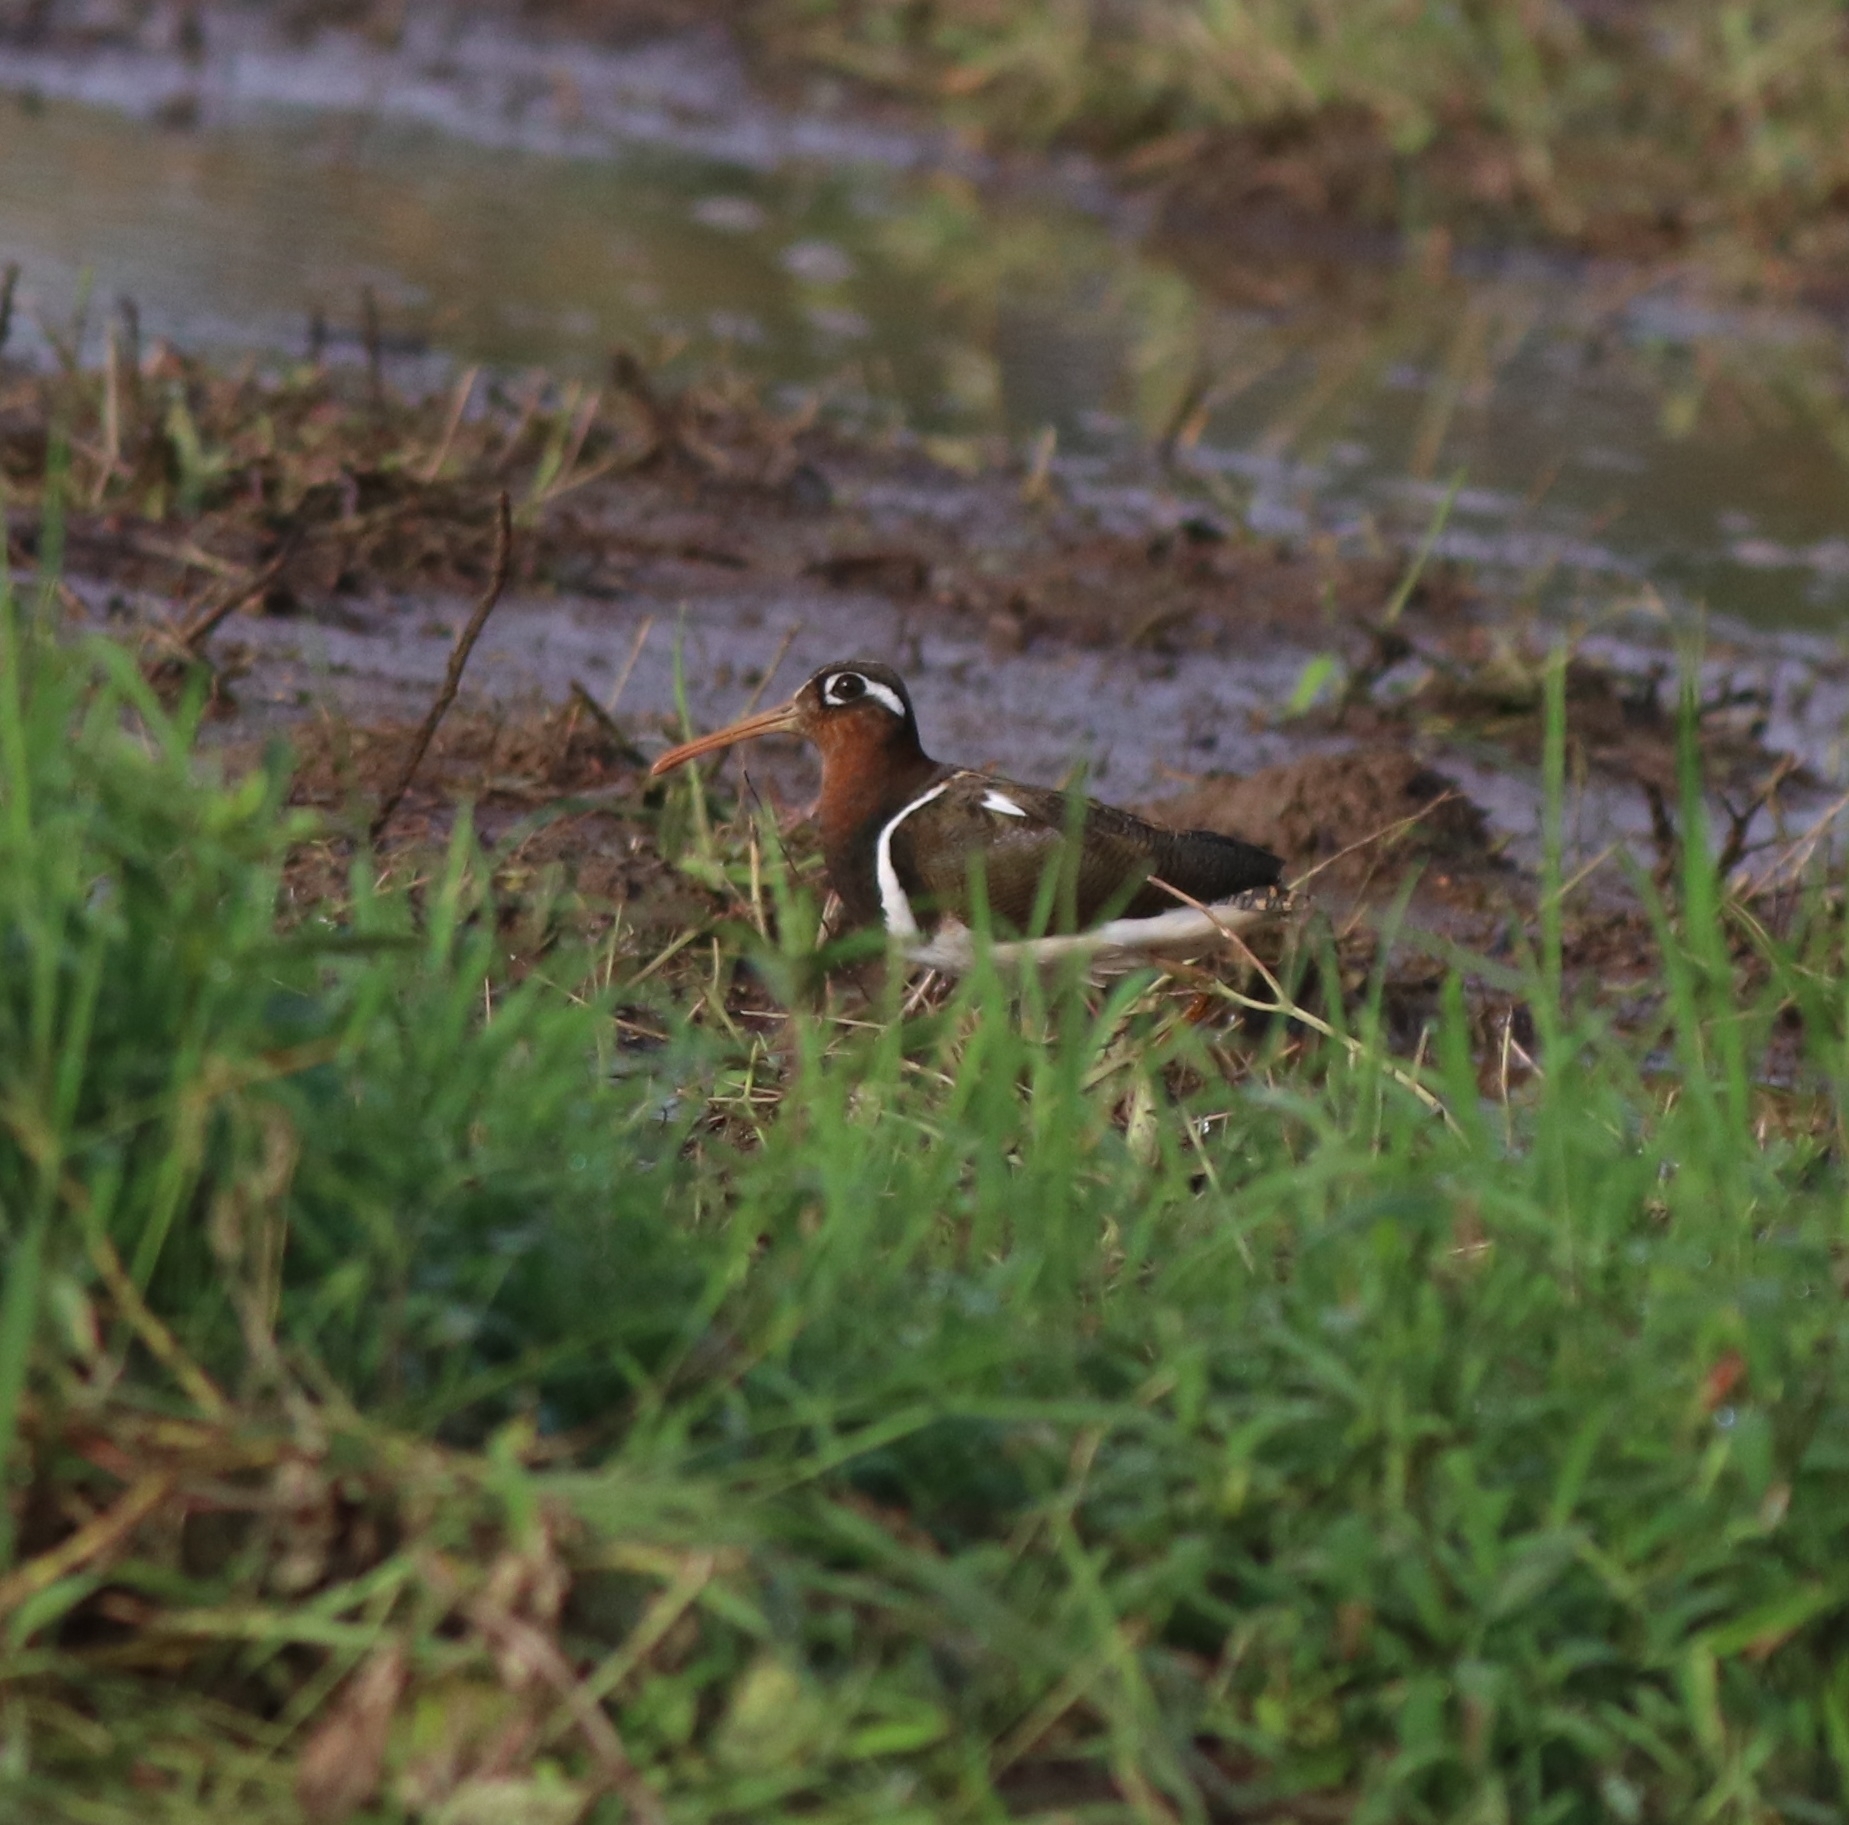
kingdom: Animalia
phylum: Chordata
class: Aves
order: Charadriiformes
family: Rostratulidae
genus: Rostratula
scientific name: Rostratula benghalensis
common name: Greater painted-snipe
